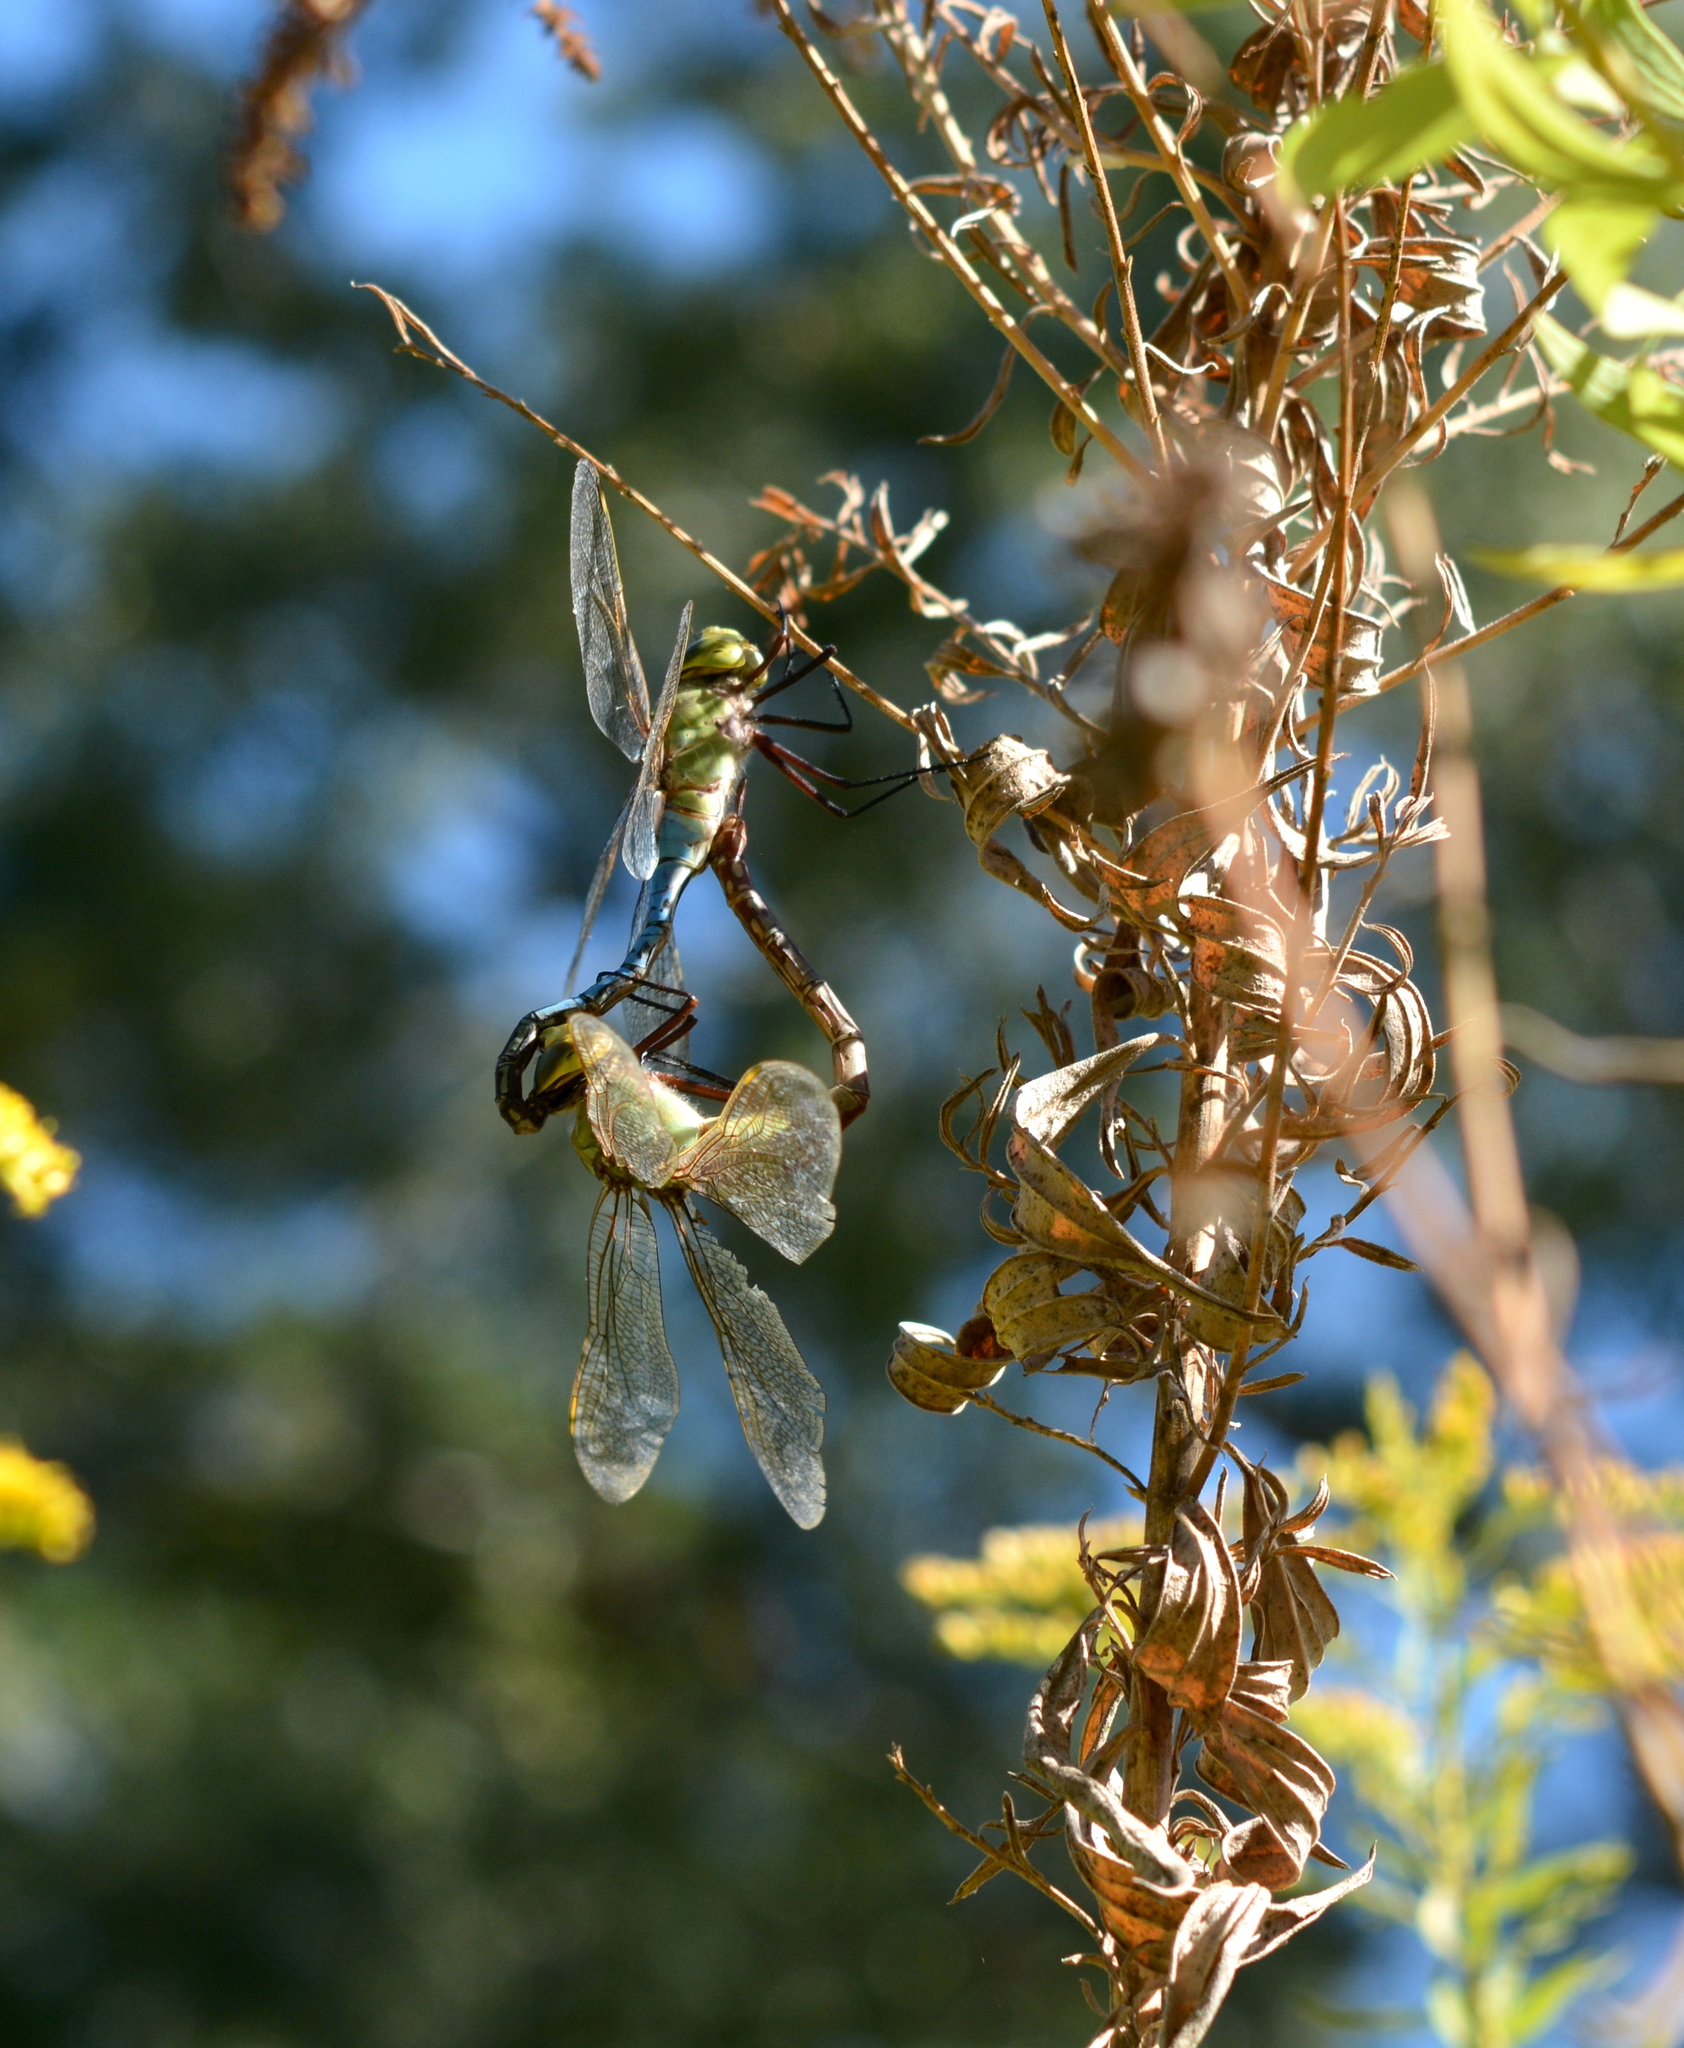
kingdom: Animalia
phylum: Arthropoda
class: Insecta
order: Odonata
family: Aeshnidae
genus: Anax
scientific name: Anax junius
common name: Common green darner
